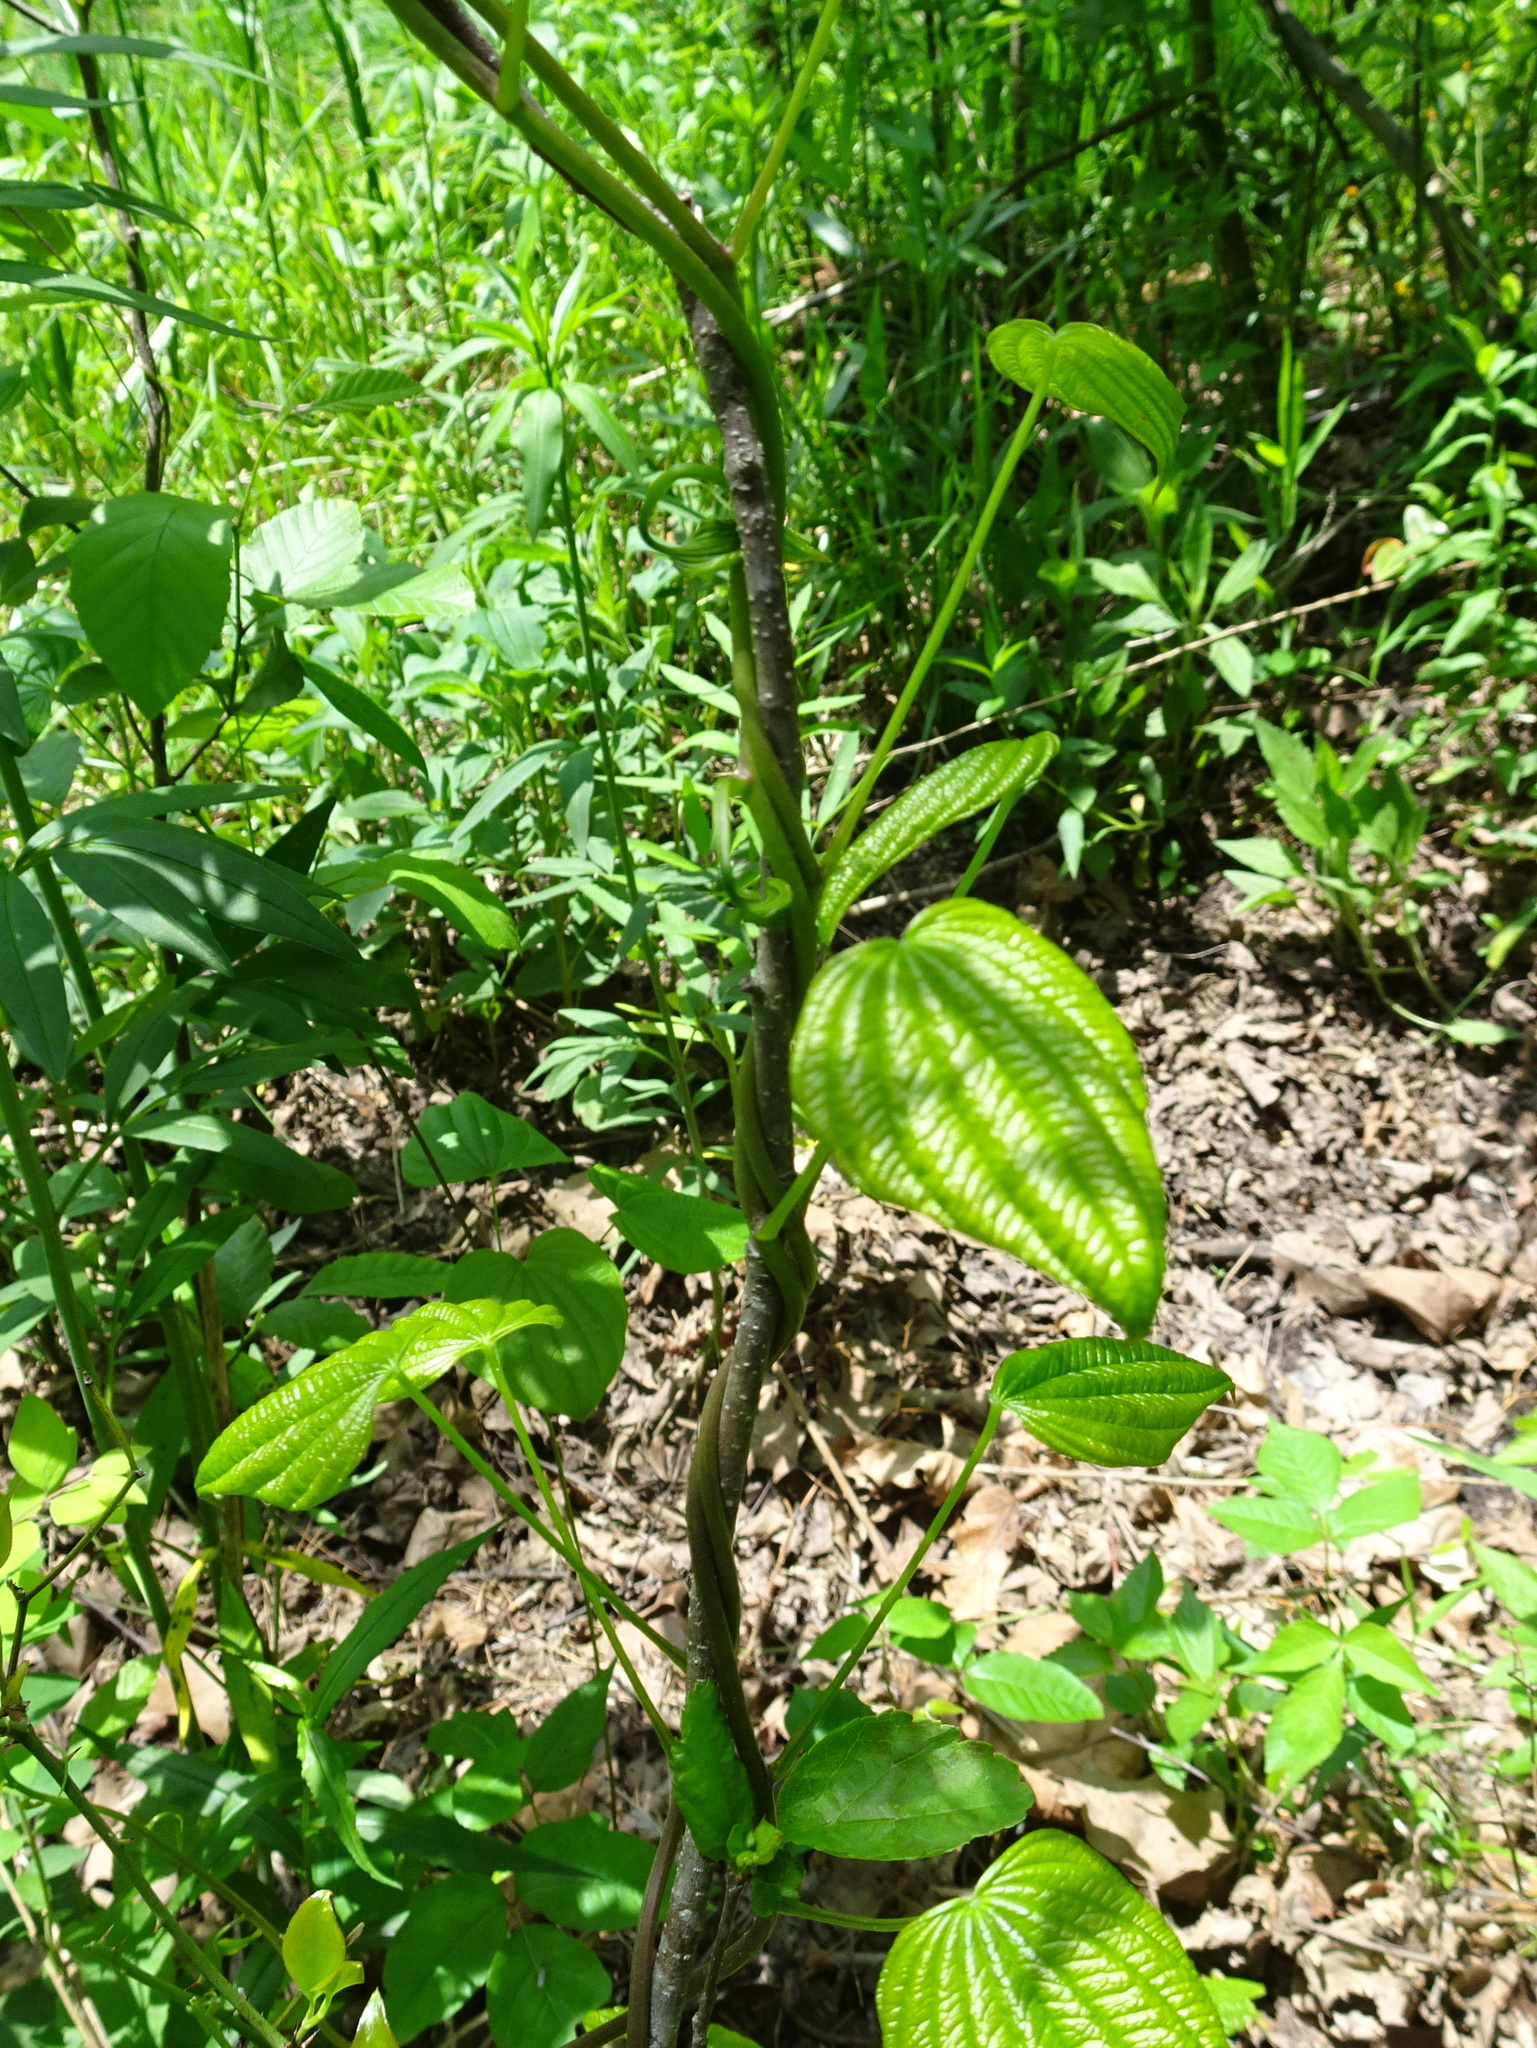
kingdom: Plantae
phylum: Tracheophyta
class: Liliopsida
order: Dioscoreales
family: Dioscoreaceae
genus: Dioscorea
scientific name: Dioscorea villosa
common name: Wild yam
